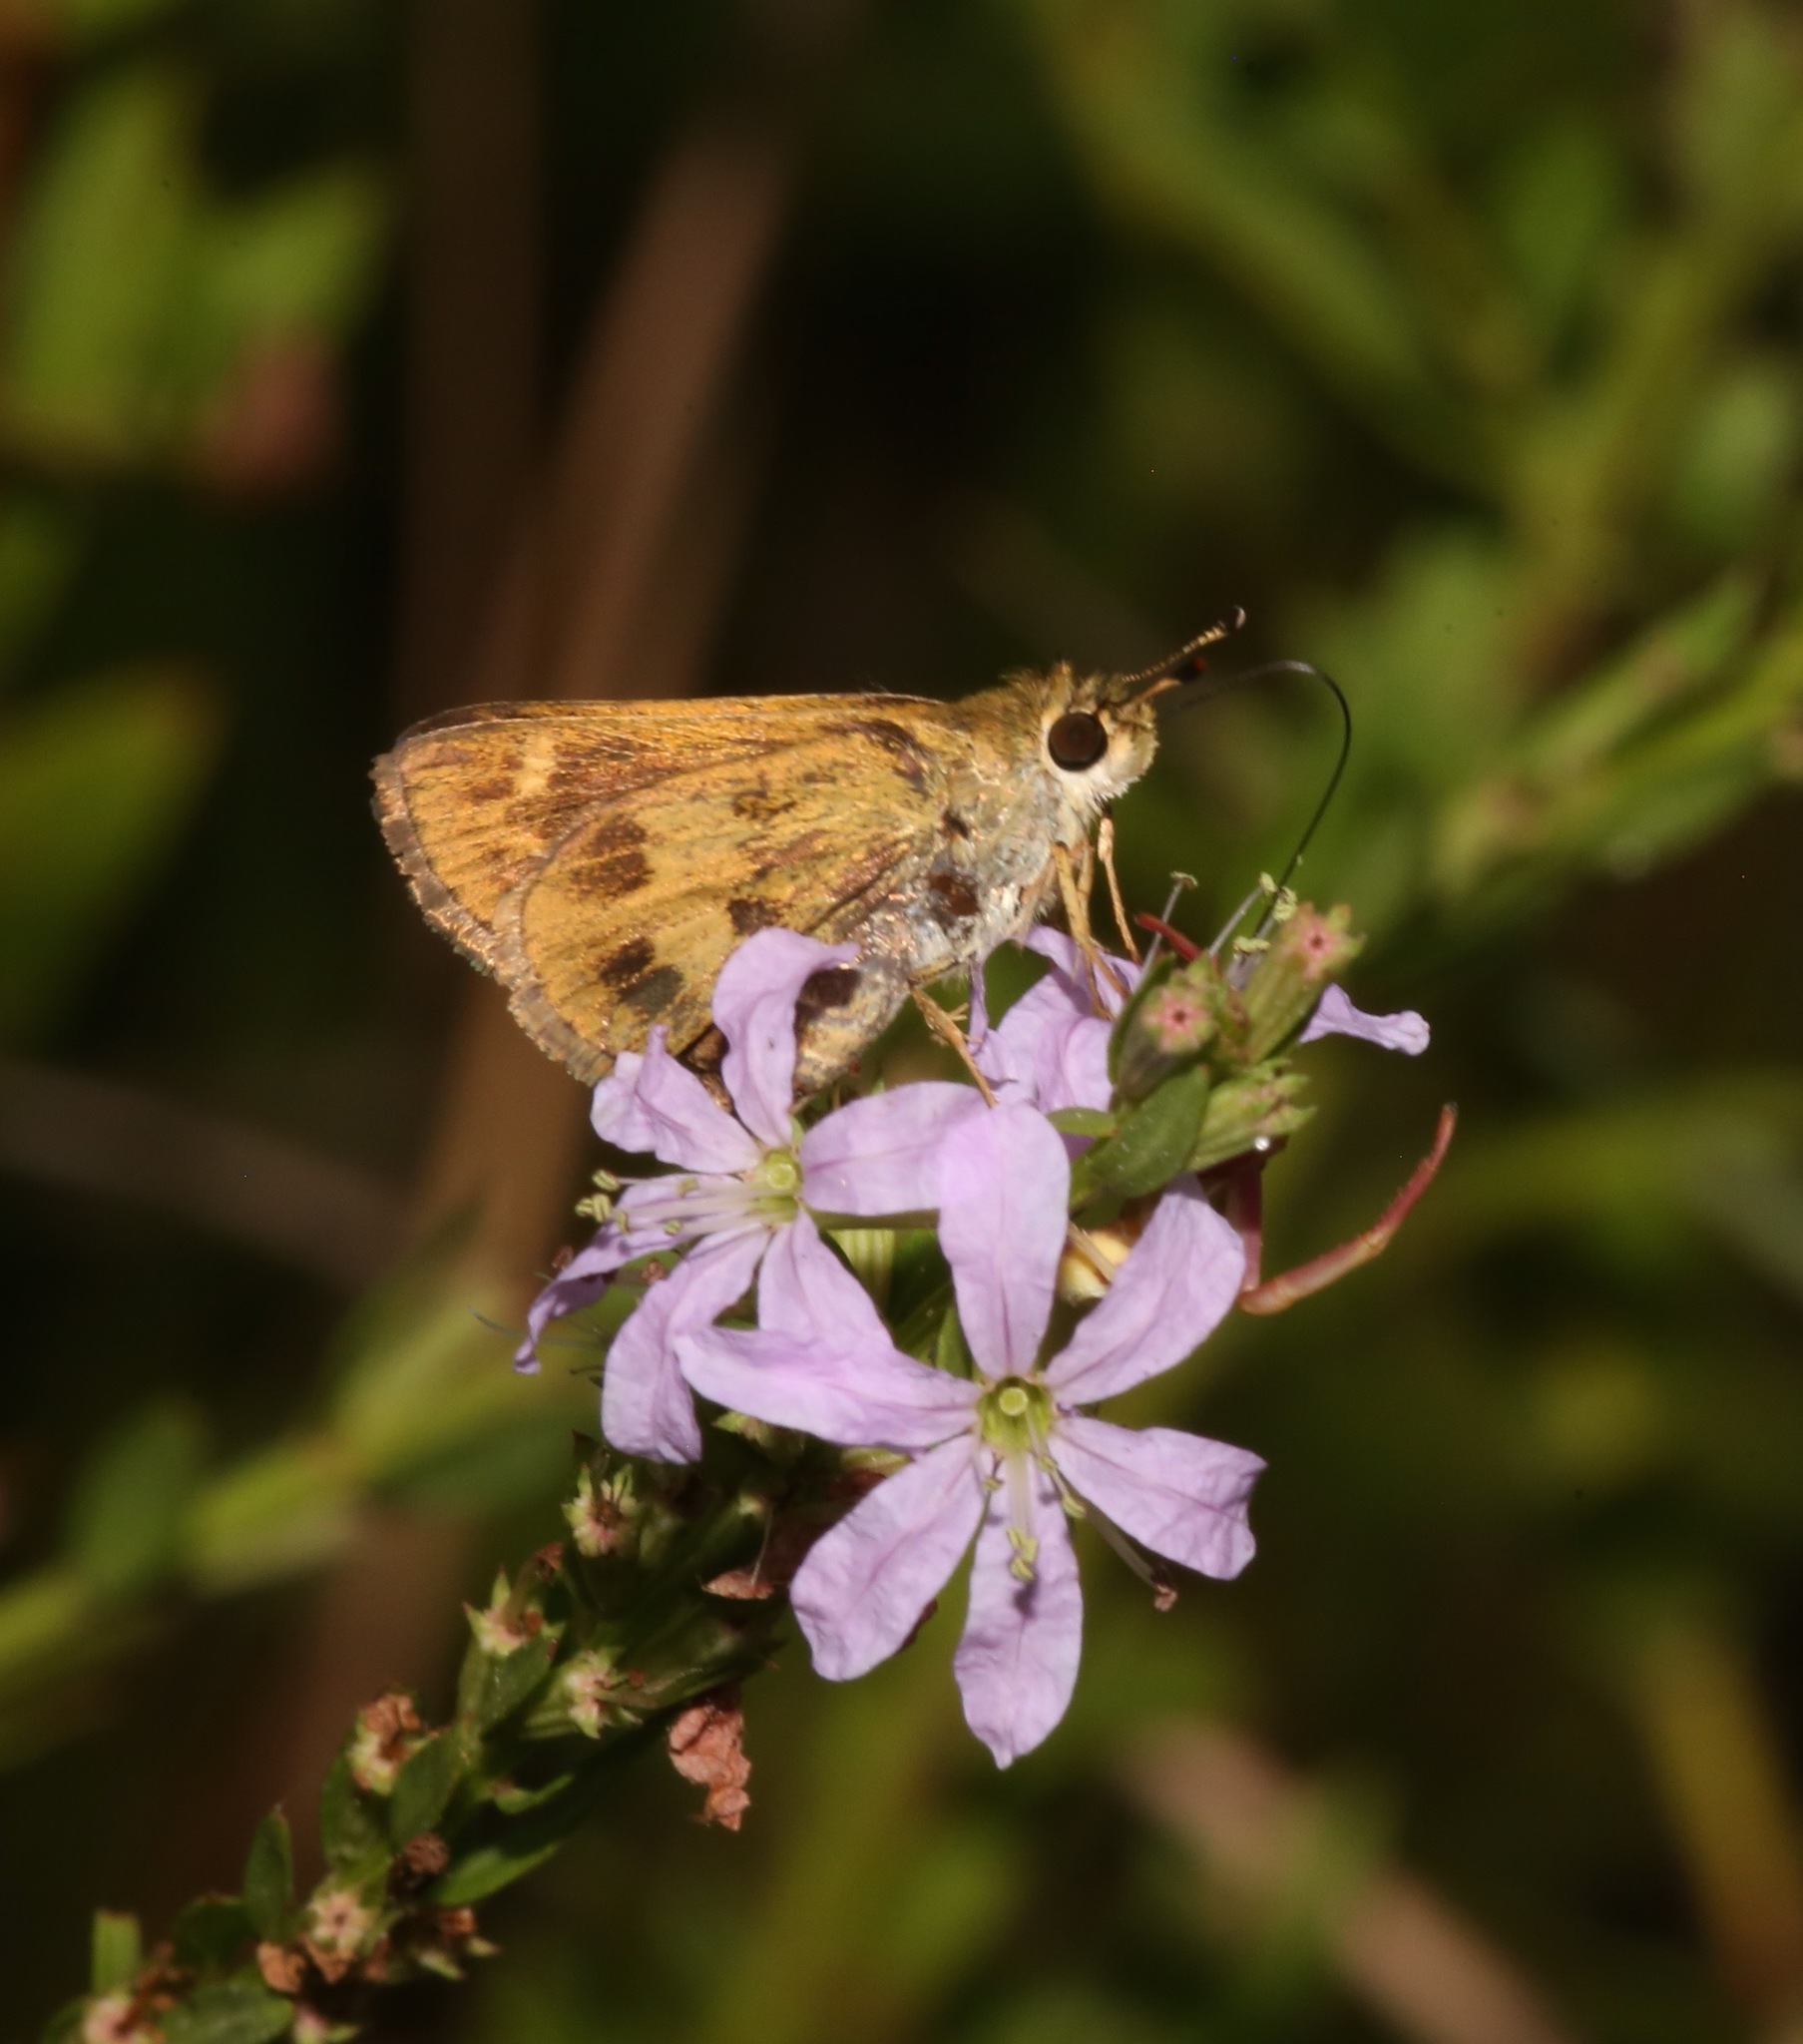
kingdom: Animalia
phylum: Arthropoda
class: Insecta
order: Lepidoptera
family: Hesperiidae
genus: Polites
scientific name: Polites vibex
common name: Whirlabout
